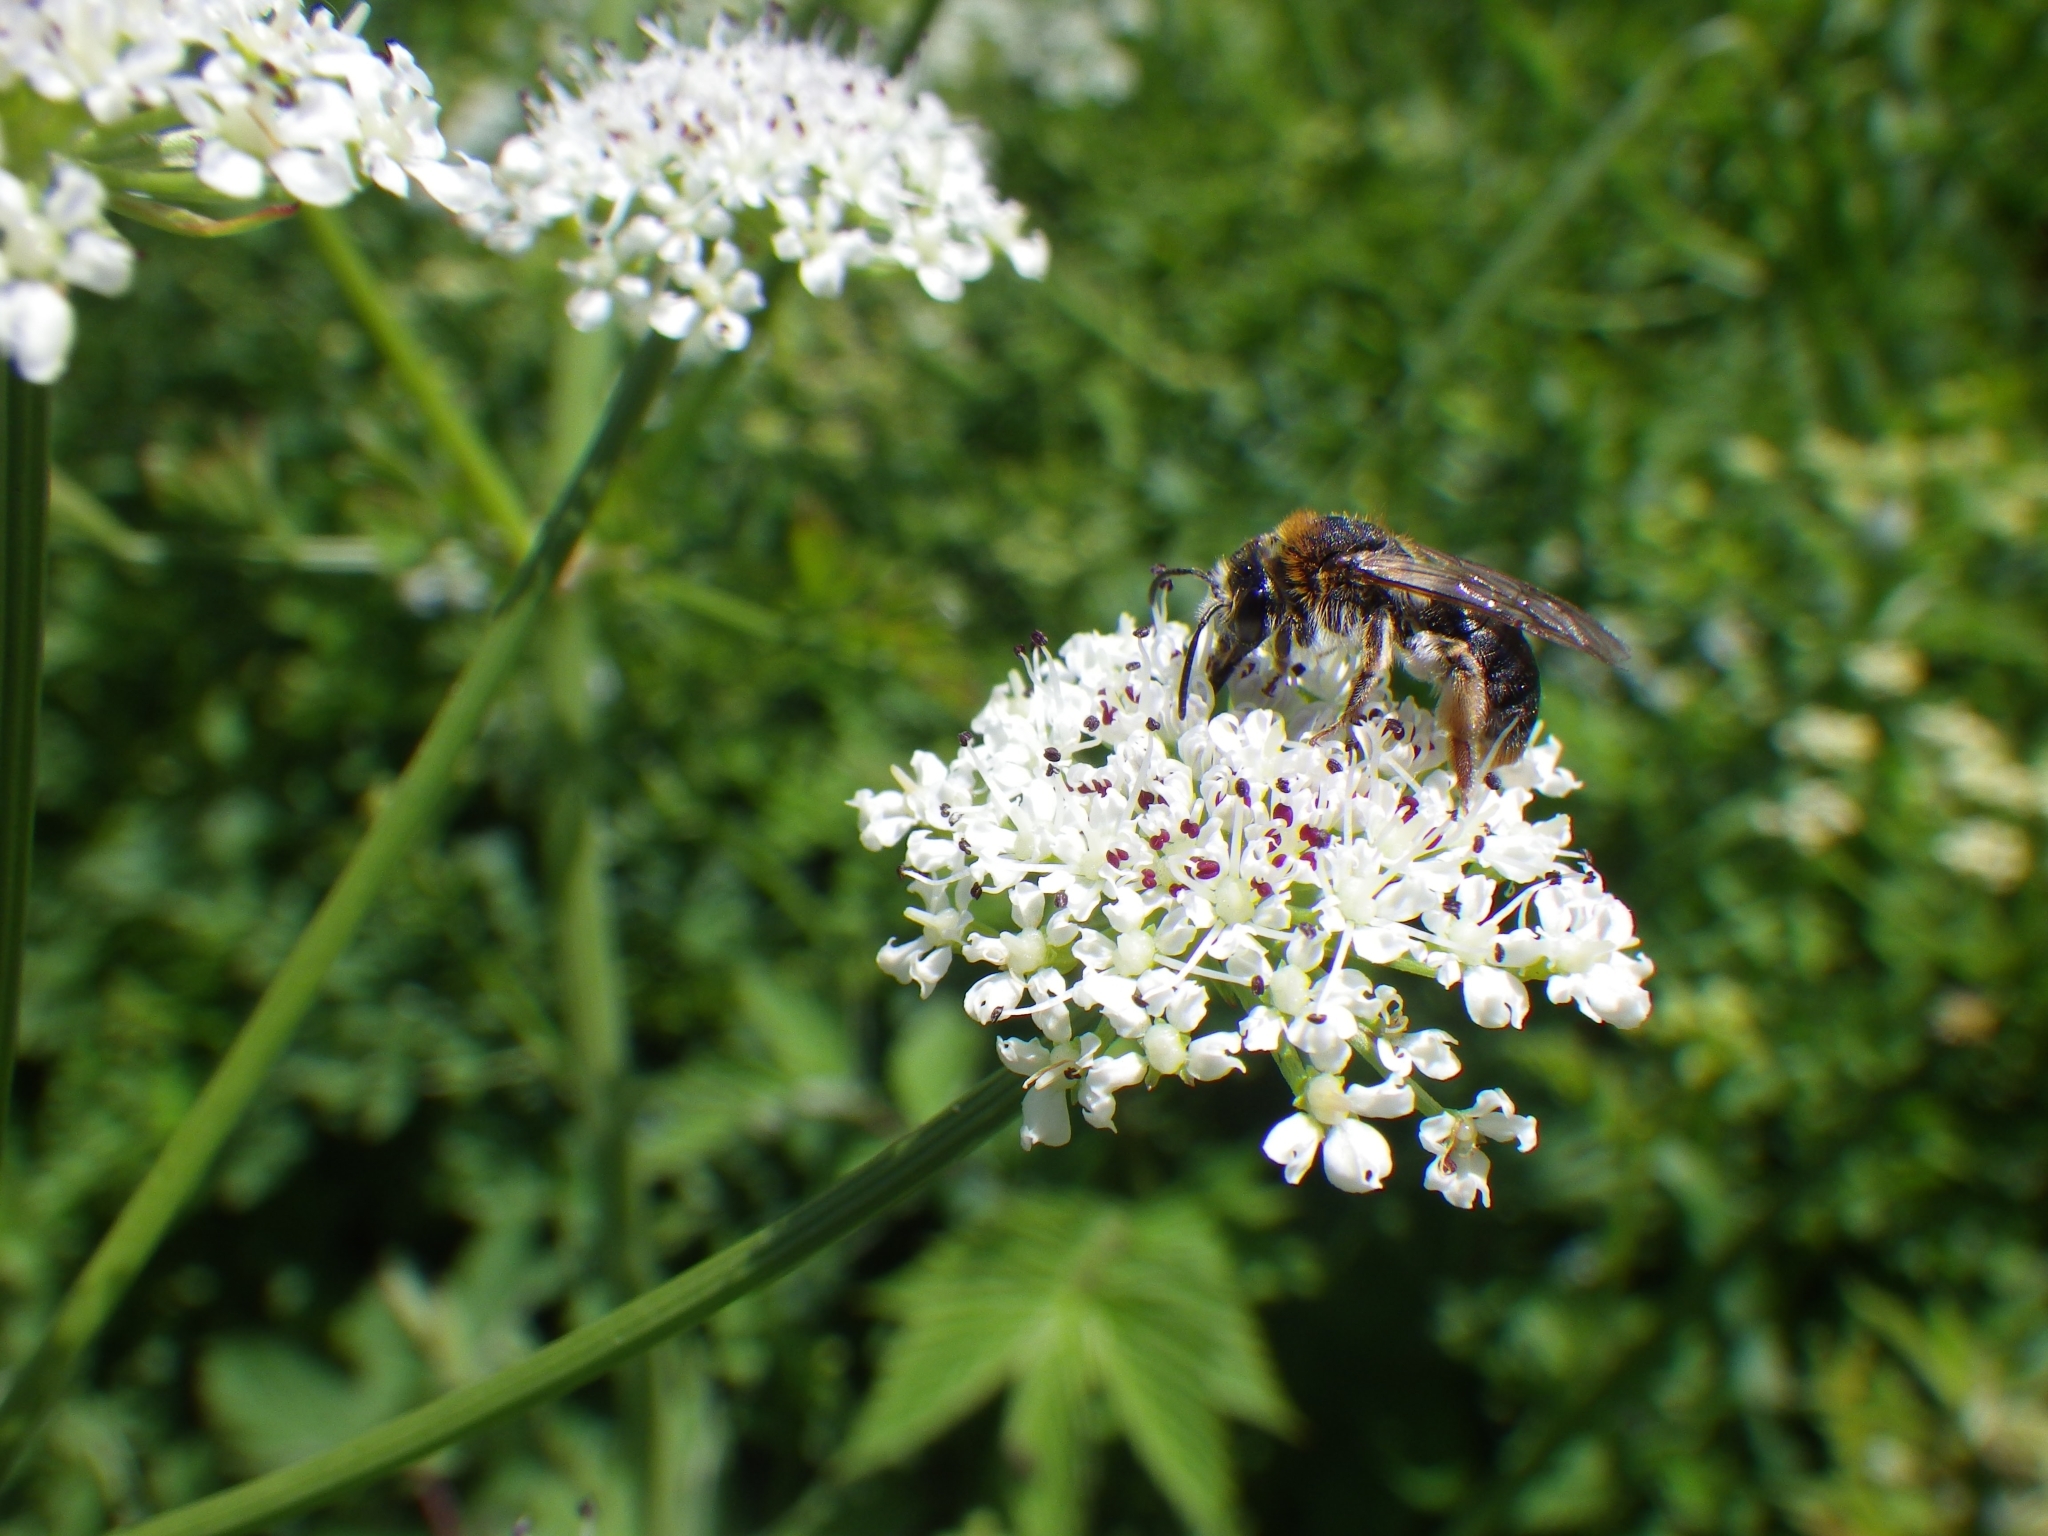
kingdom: Animalia
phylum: Arthropoda
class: Insecta
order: Hymenoptera
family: Andrenidae
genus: Andrena
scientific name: Andrena haemorrhoa
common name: Early mining bee
